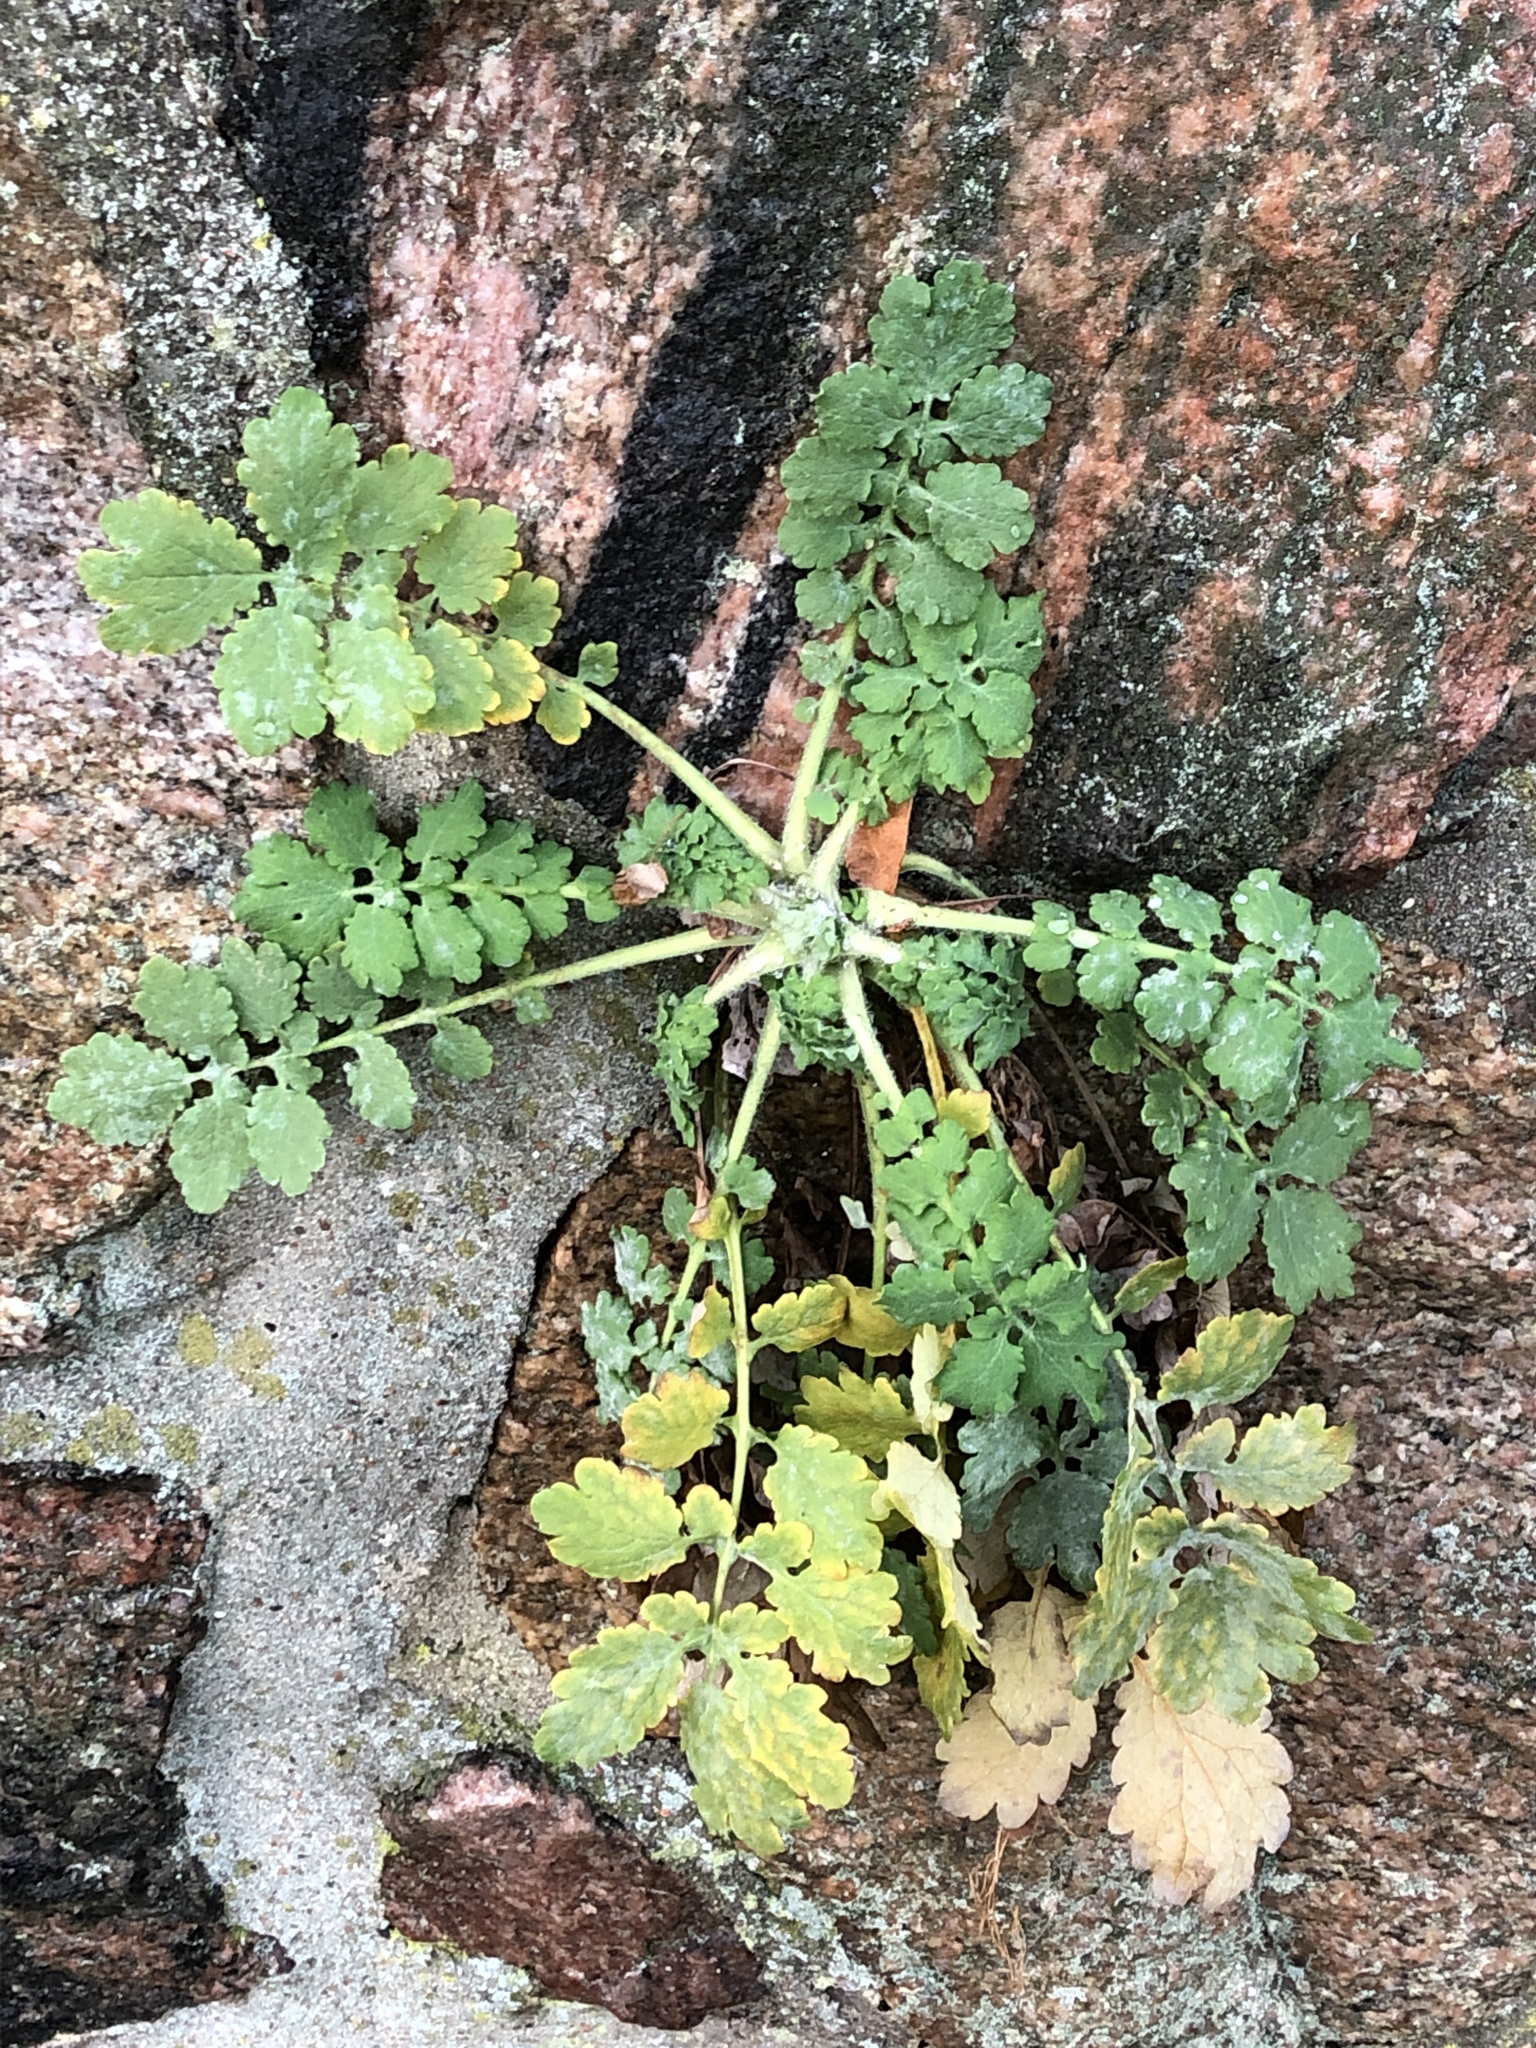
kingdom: Plantae
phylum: Tracheophyta
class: Magnoliopsida
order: Ranunculales
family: Papaveraceae
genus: Chelidonium
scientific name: Chelidonium majus
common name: Greater celandine
